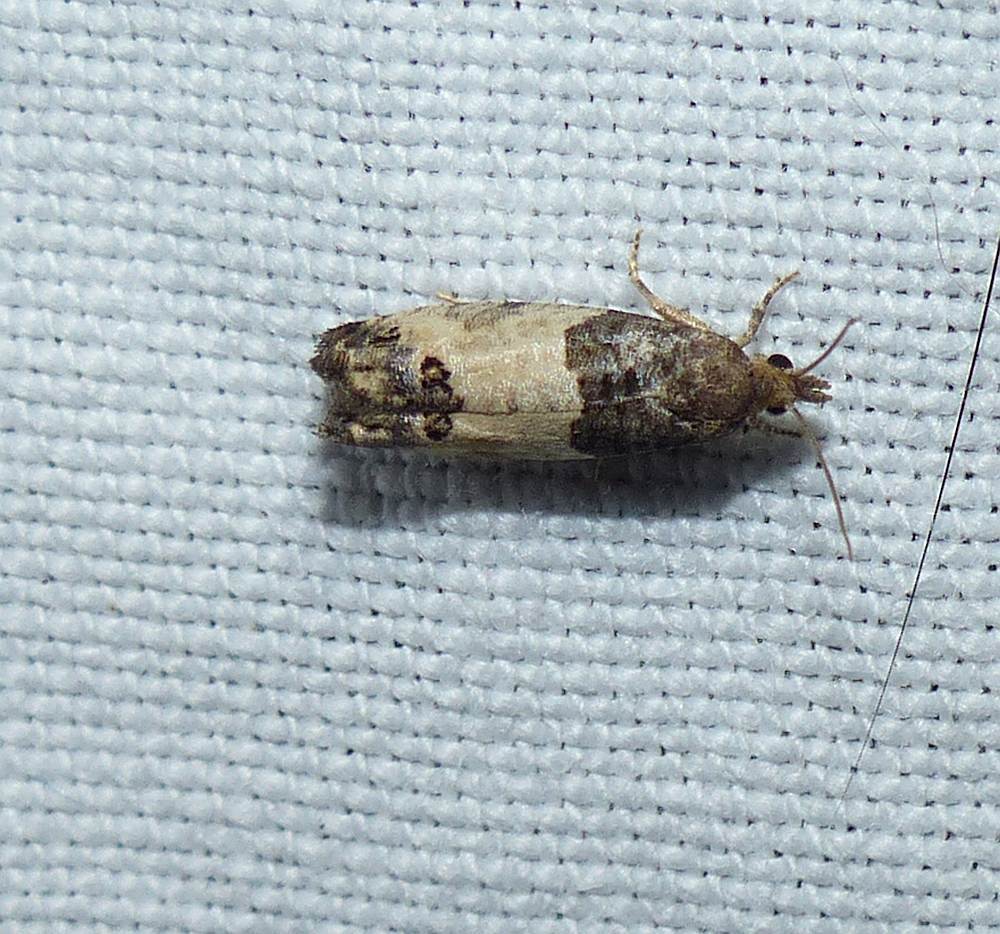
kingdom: Animalia
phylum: Arthropoda
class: Insecta
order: Lepidoptera
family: Tortricidae
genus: Spilonota
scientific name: Spilonota ocellana
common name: Bud moth
